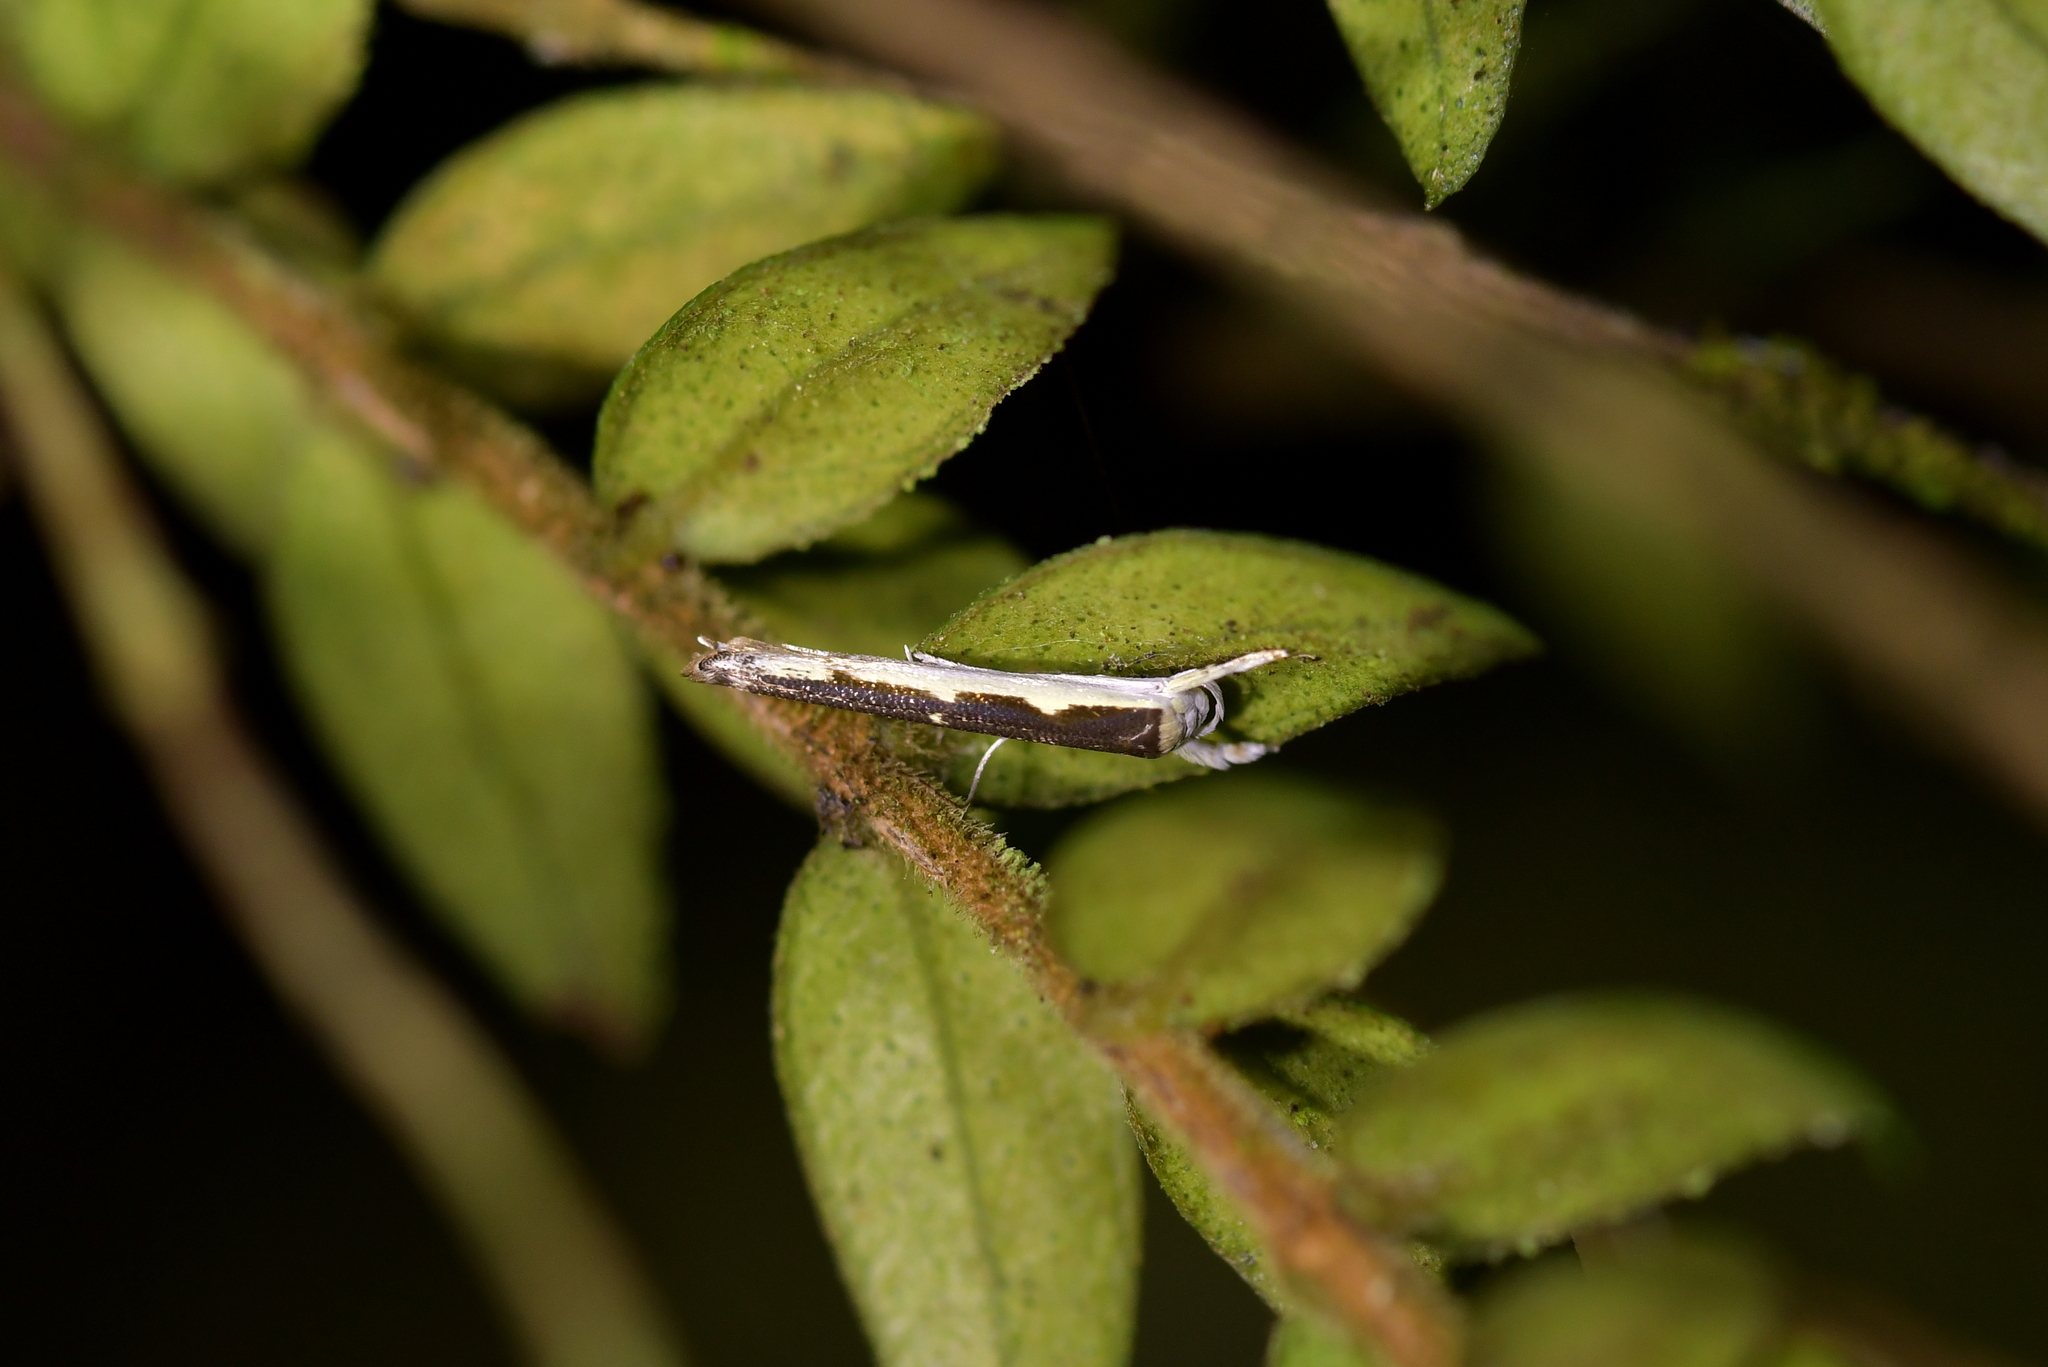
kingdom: Animalia
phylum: Arthropoda
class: Insecta
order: Lepidoptera
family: Roeslerstammiidae
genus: Vanicela
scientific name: Vanicela disjunctella
